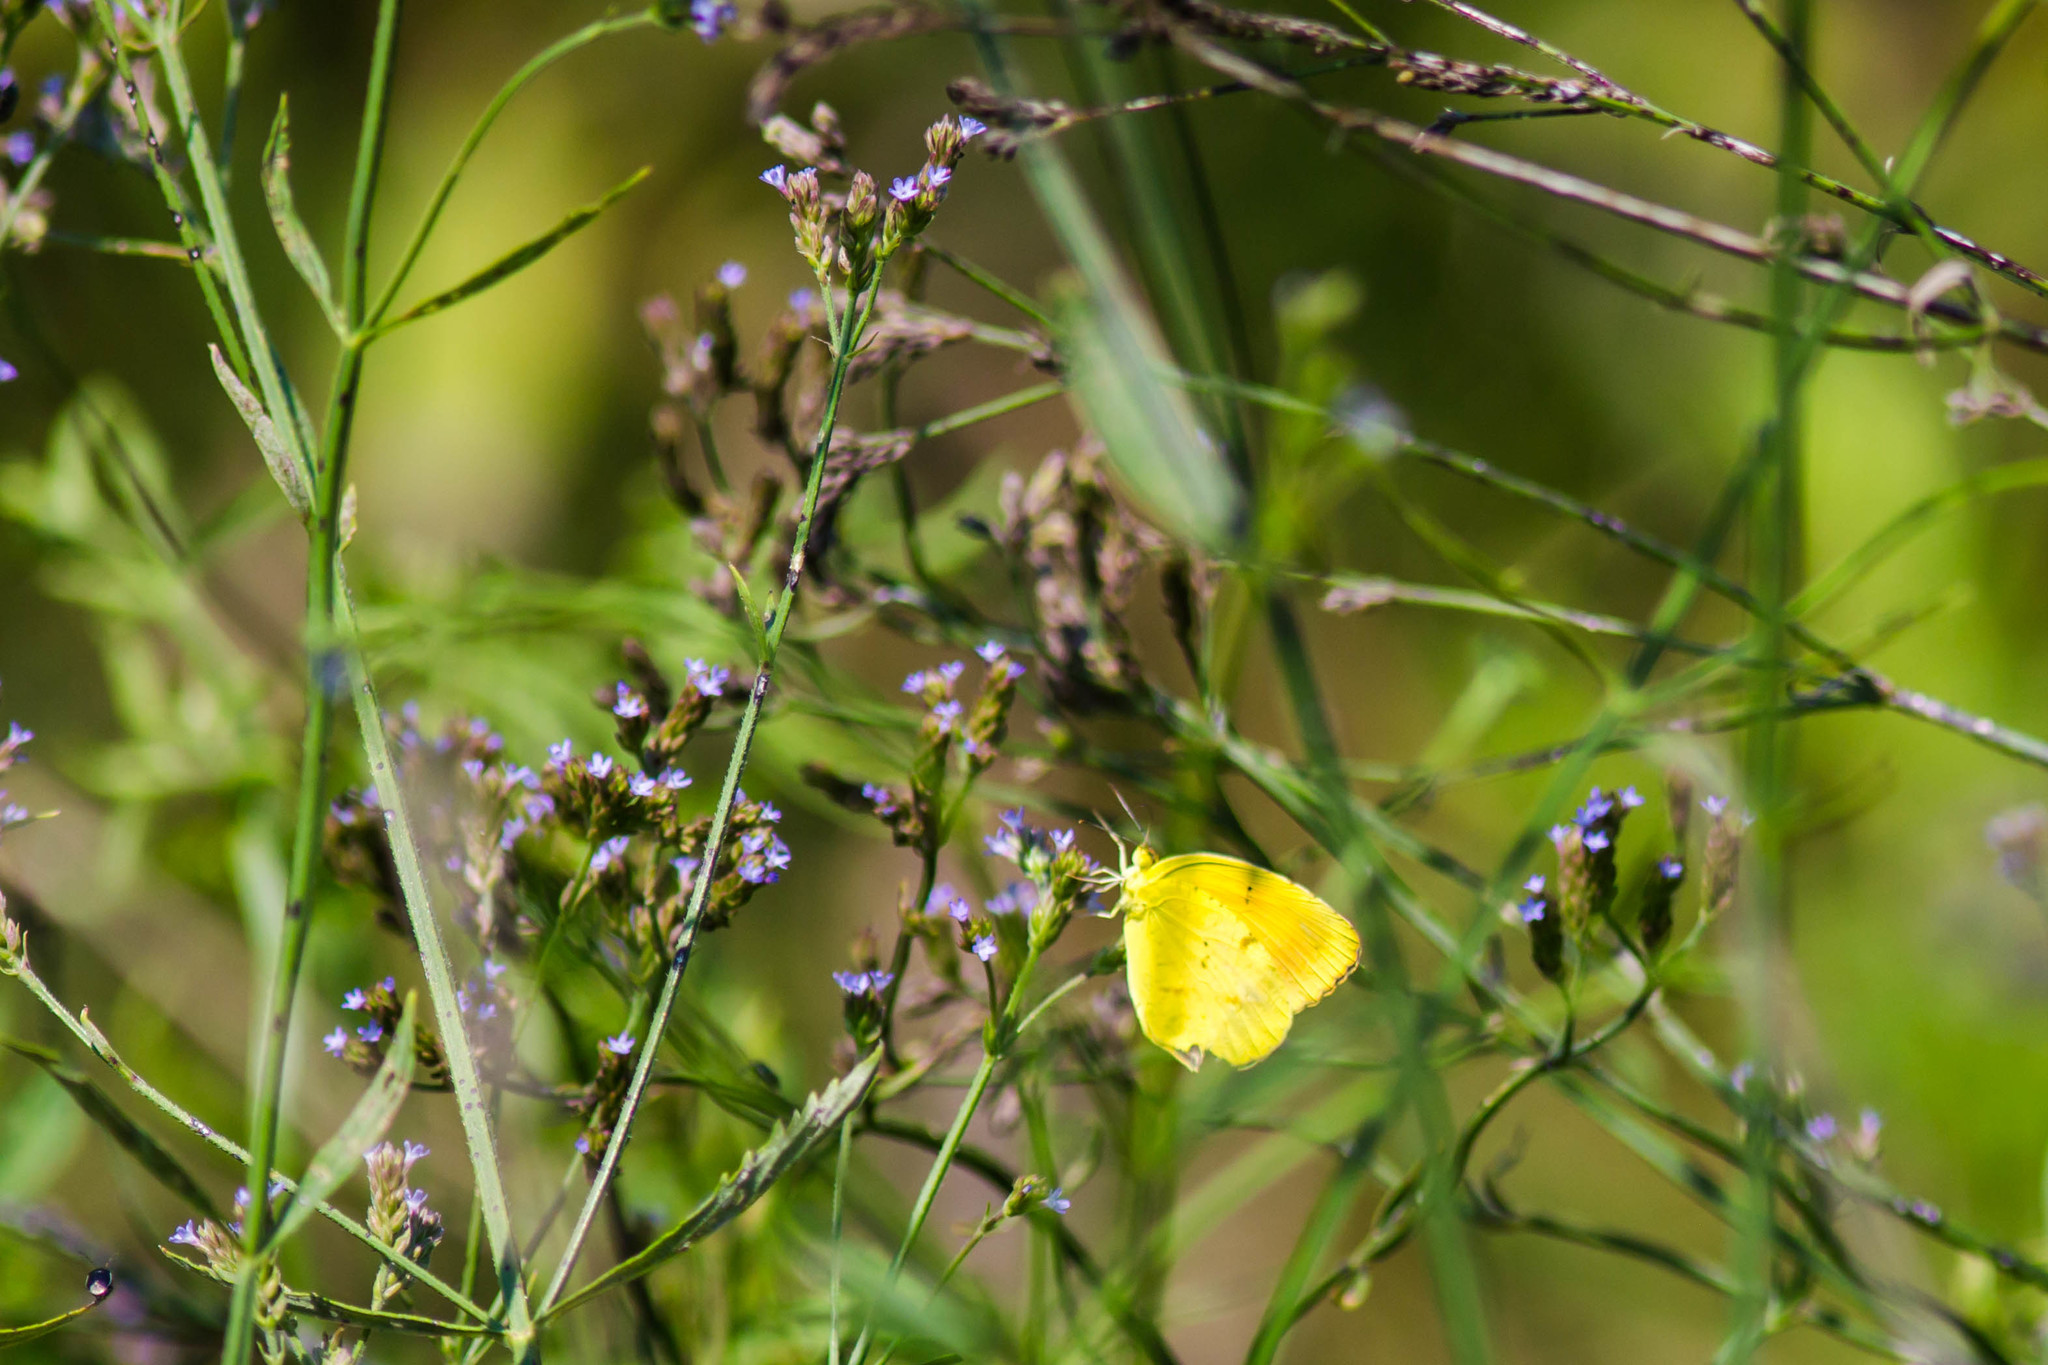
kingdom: Animalia
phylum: Arthropoda
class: Insecta
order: Lepidoptera
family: Pieridae
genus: Abaeis
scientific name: Abaeis nicippe
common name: Sleepy orange
